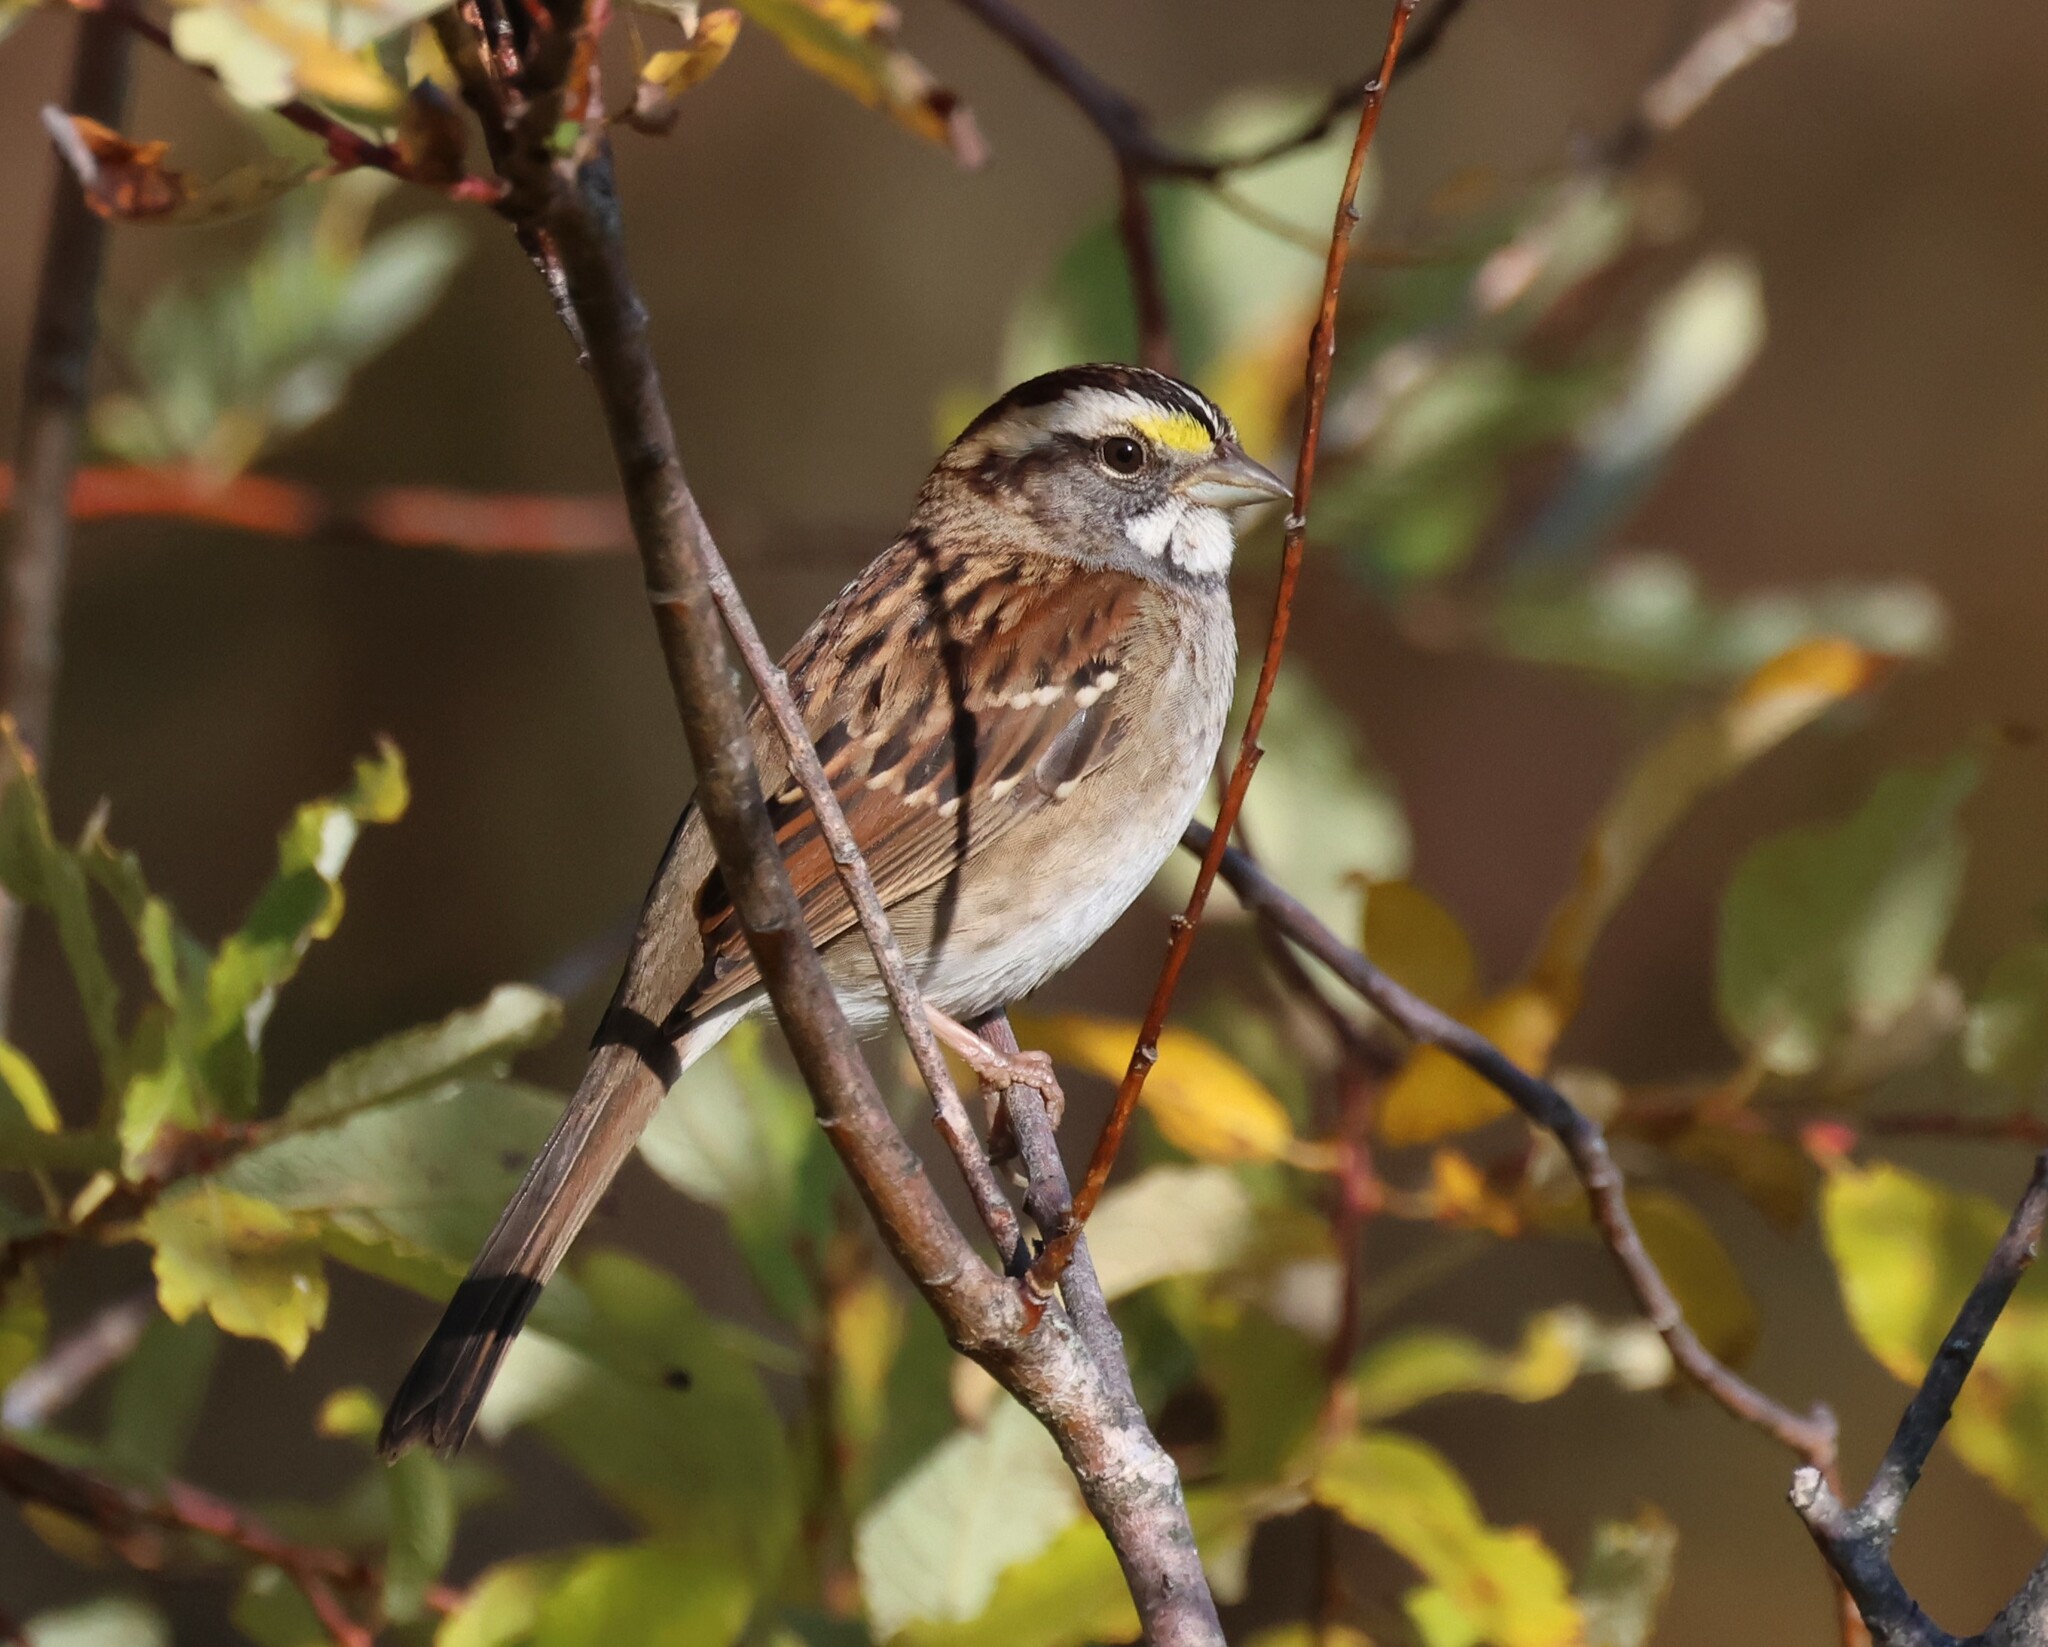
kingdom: Animalia
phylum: Chordata
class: Aves
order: Passeriformes
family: Passerellidae
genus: Zonotrichia
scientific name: Zonotrichia albicollis
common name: White-throated sparrow
